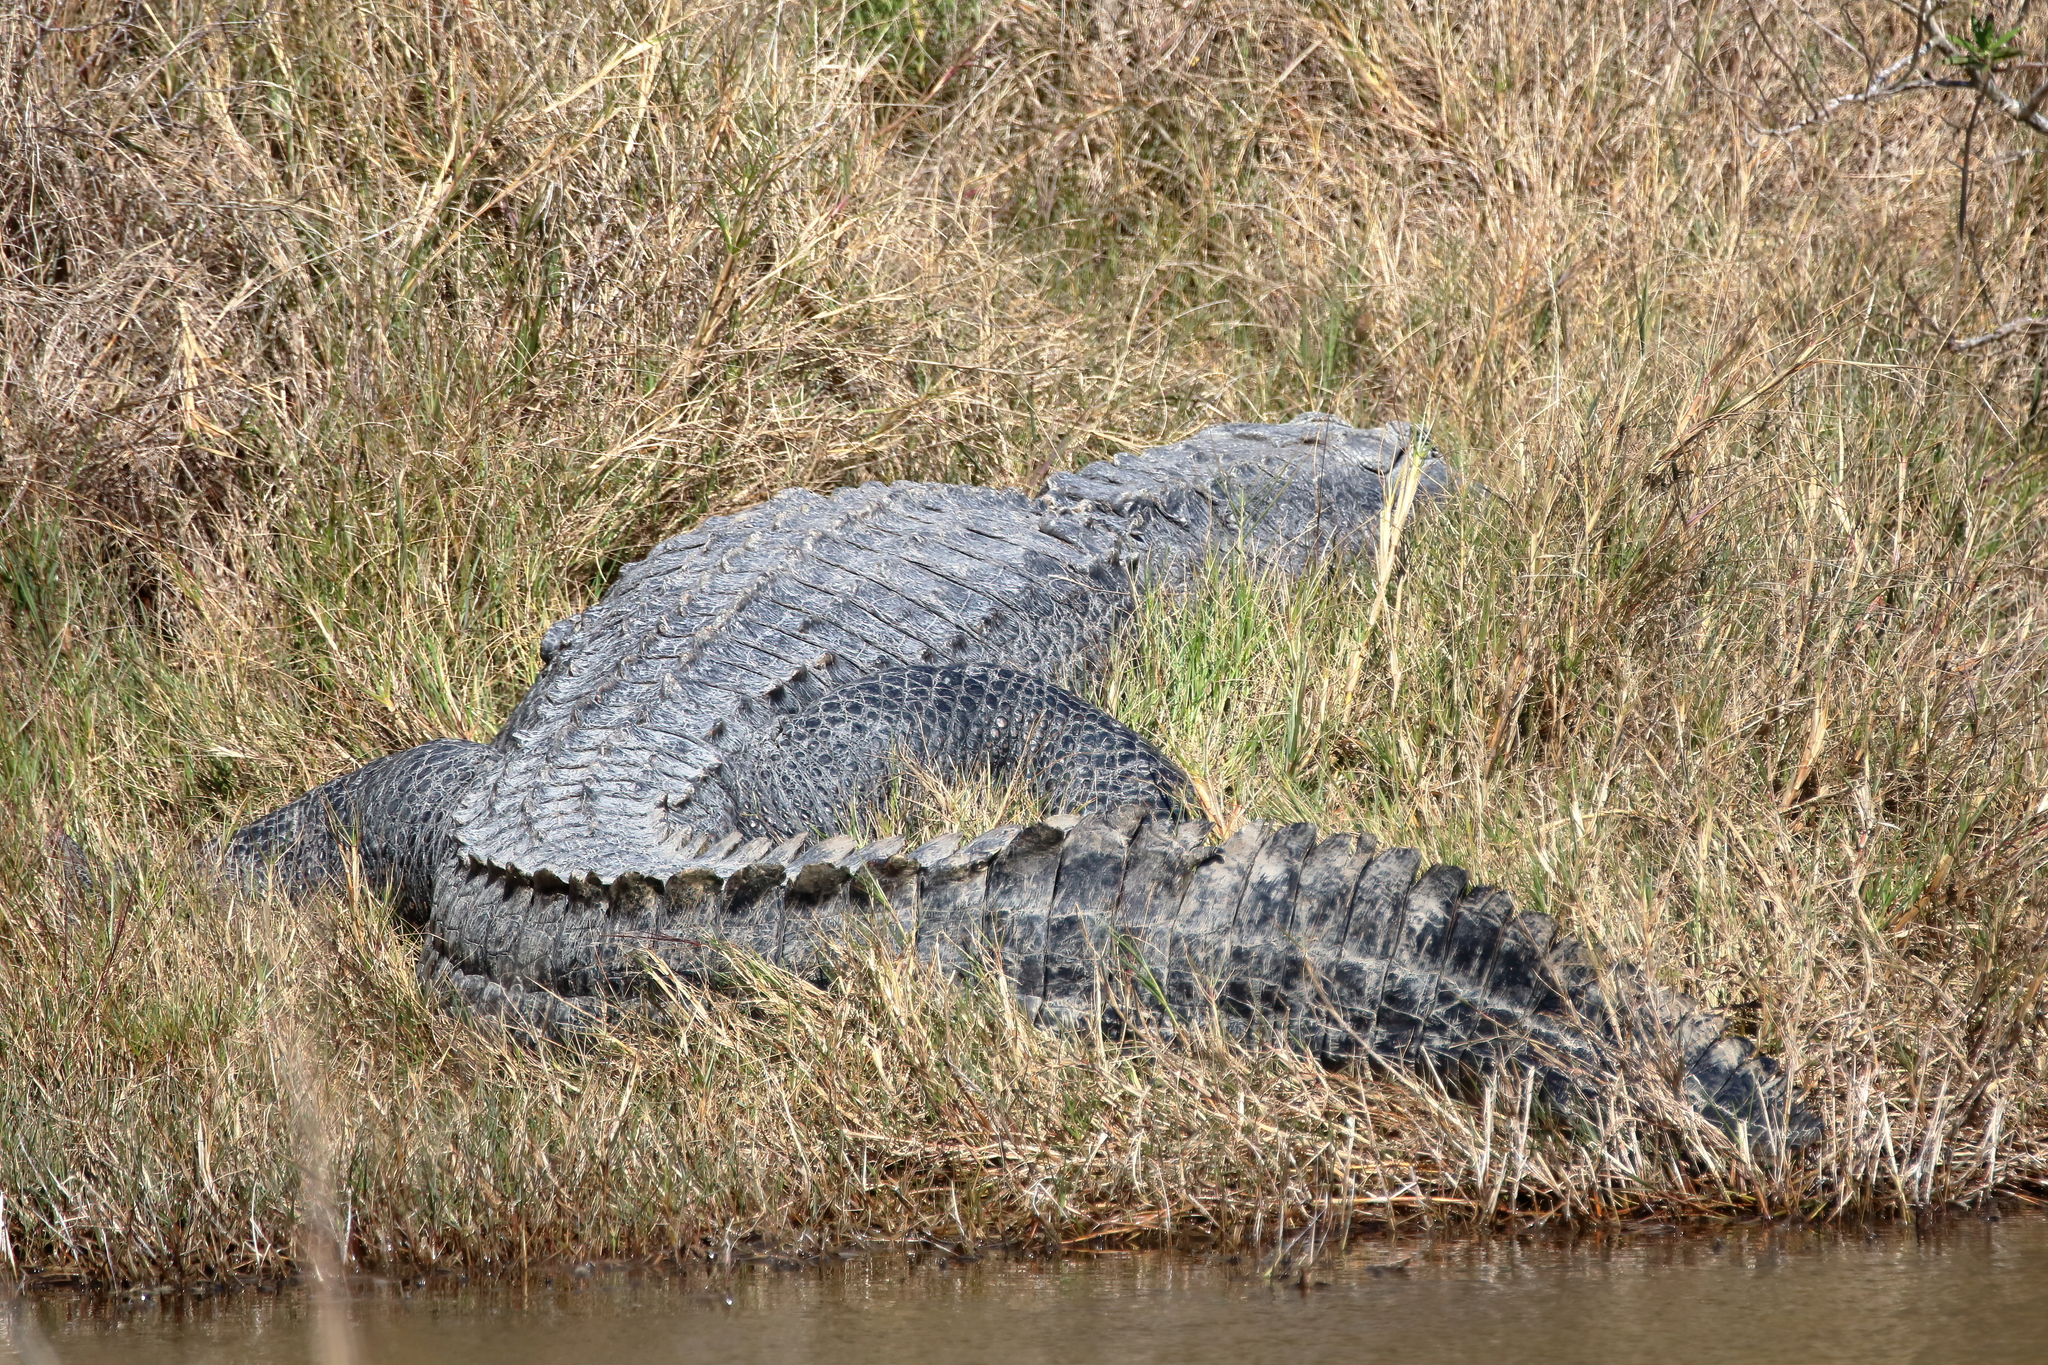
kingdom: Animalia
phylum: Chordata
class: Crocodylia
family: Alligatoridae
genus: Alligator
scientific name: Alligator mississippiensis
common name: American alligator
